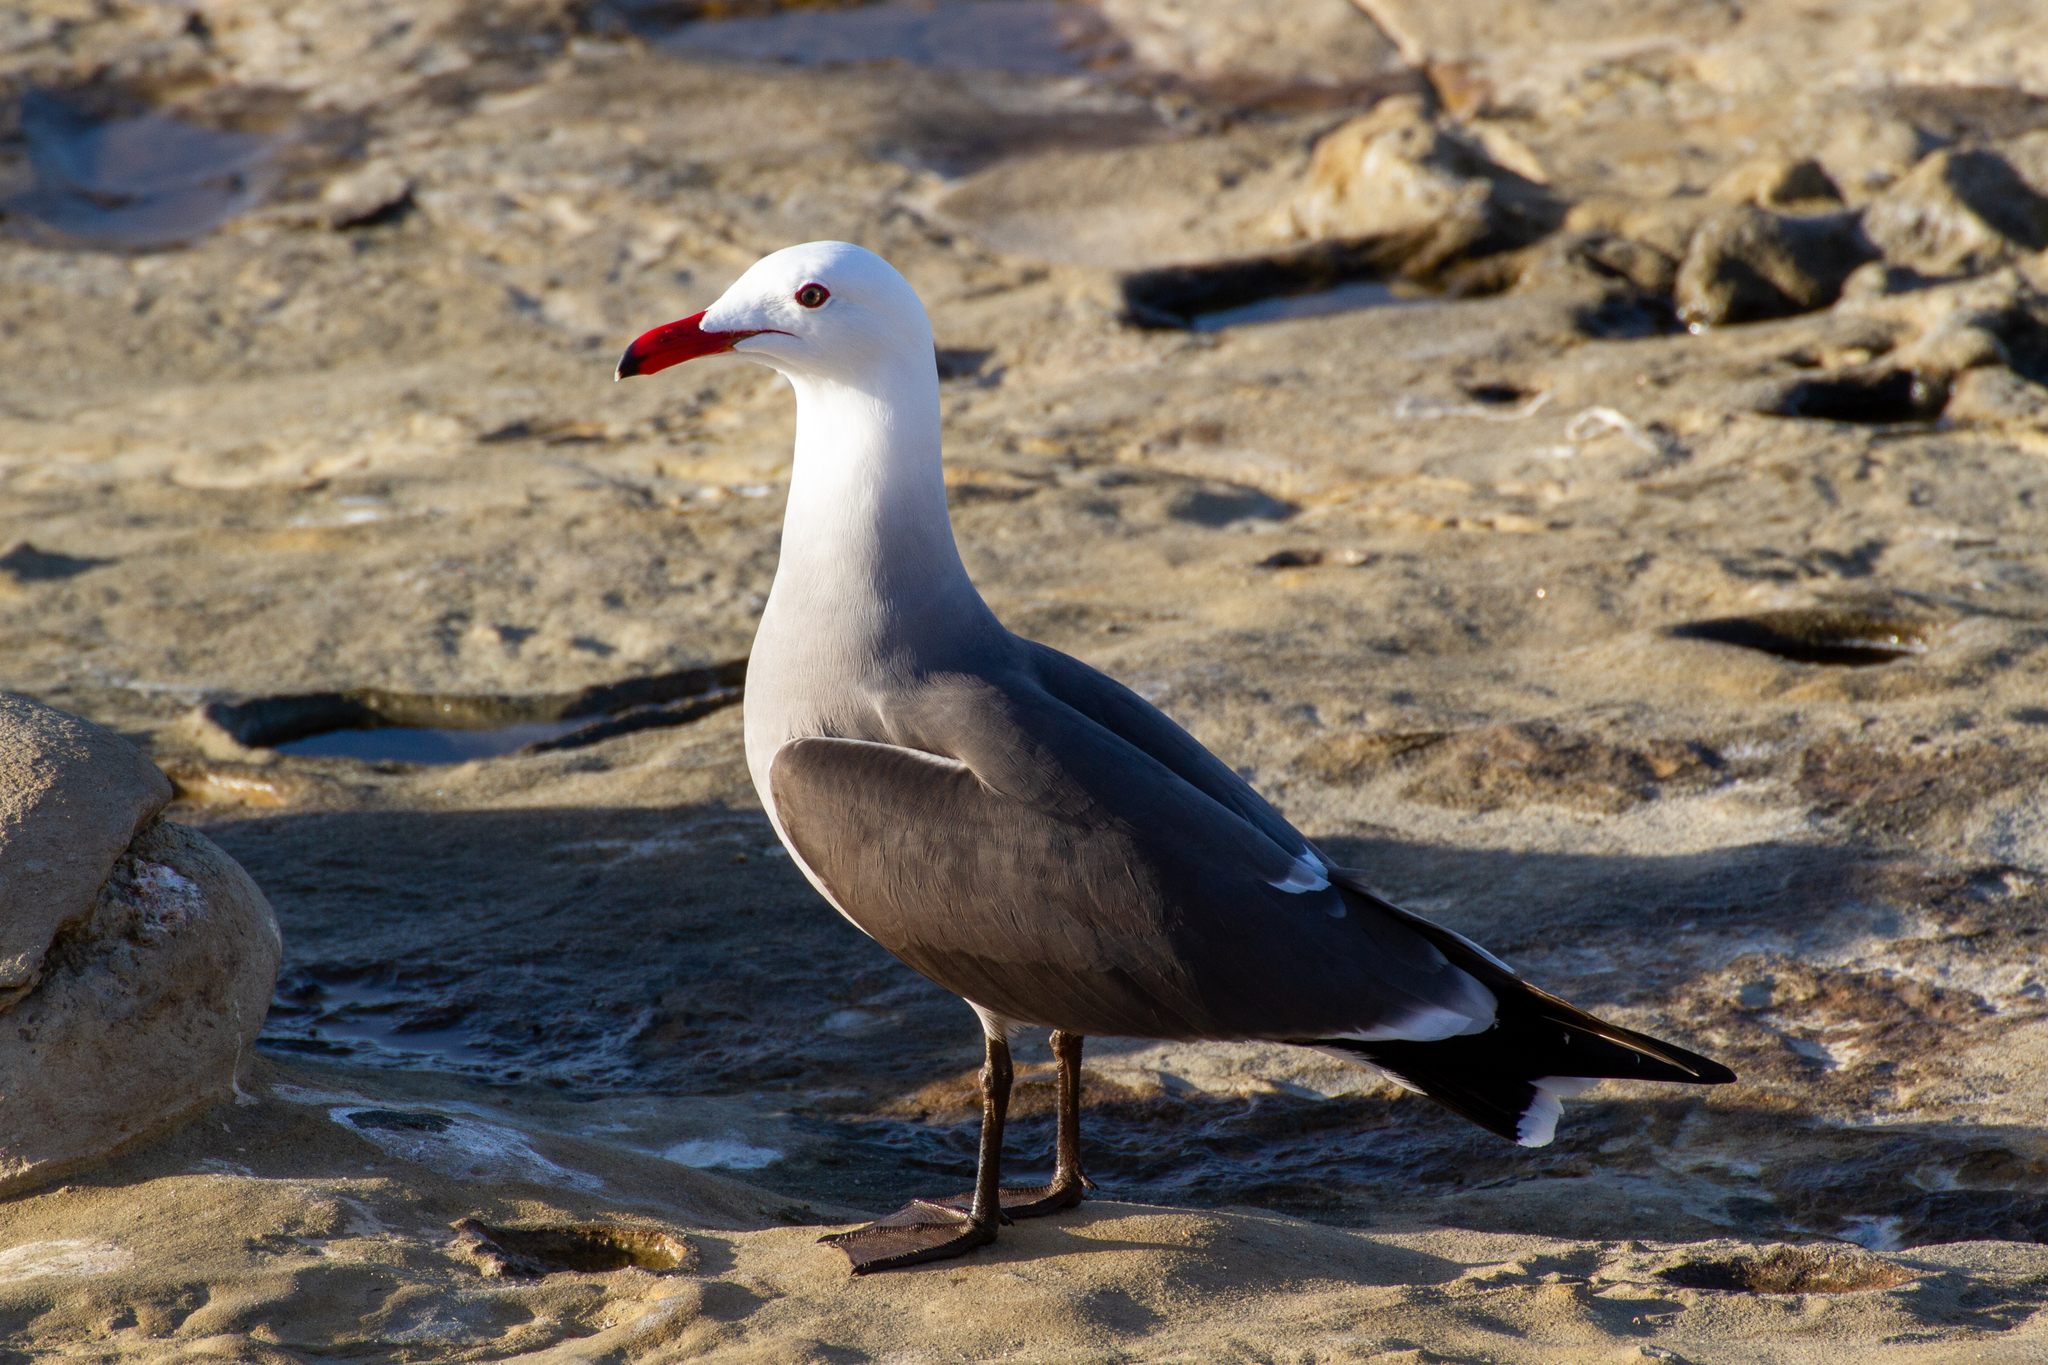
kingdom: Animalia
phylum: Chordata
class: Aves
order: Charadriiformes
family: Laridae
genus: Larus
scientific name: Larus heermanni
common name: Heermann's gull
